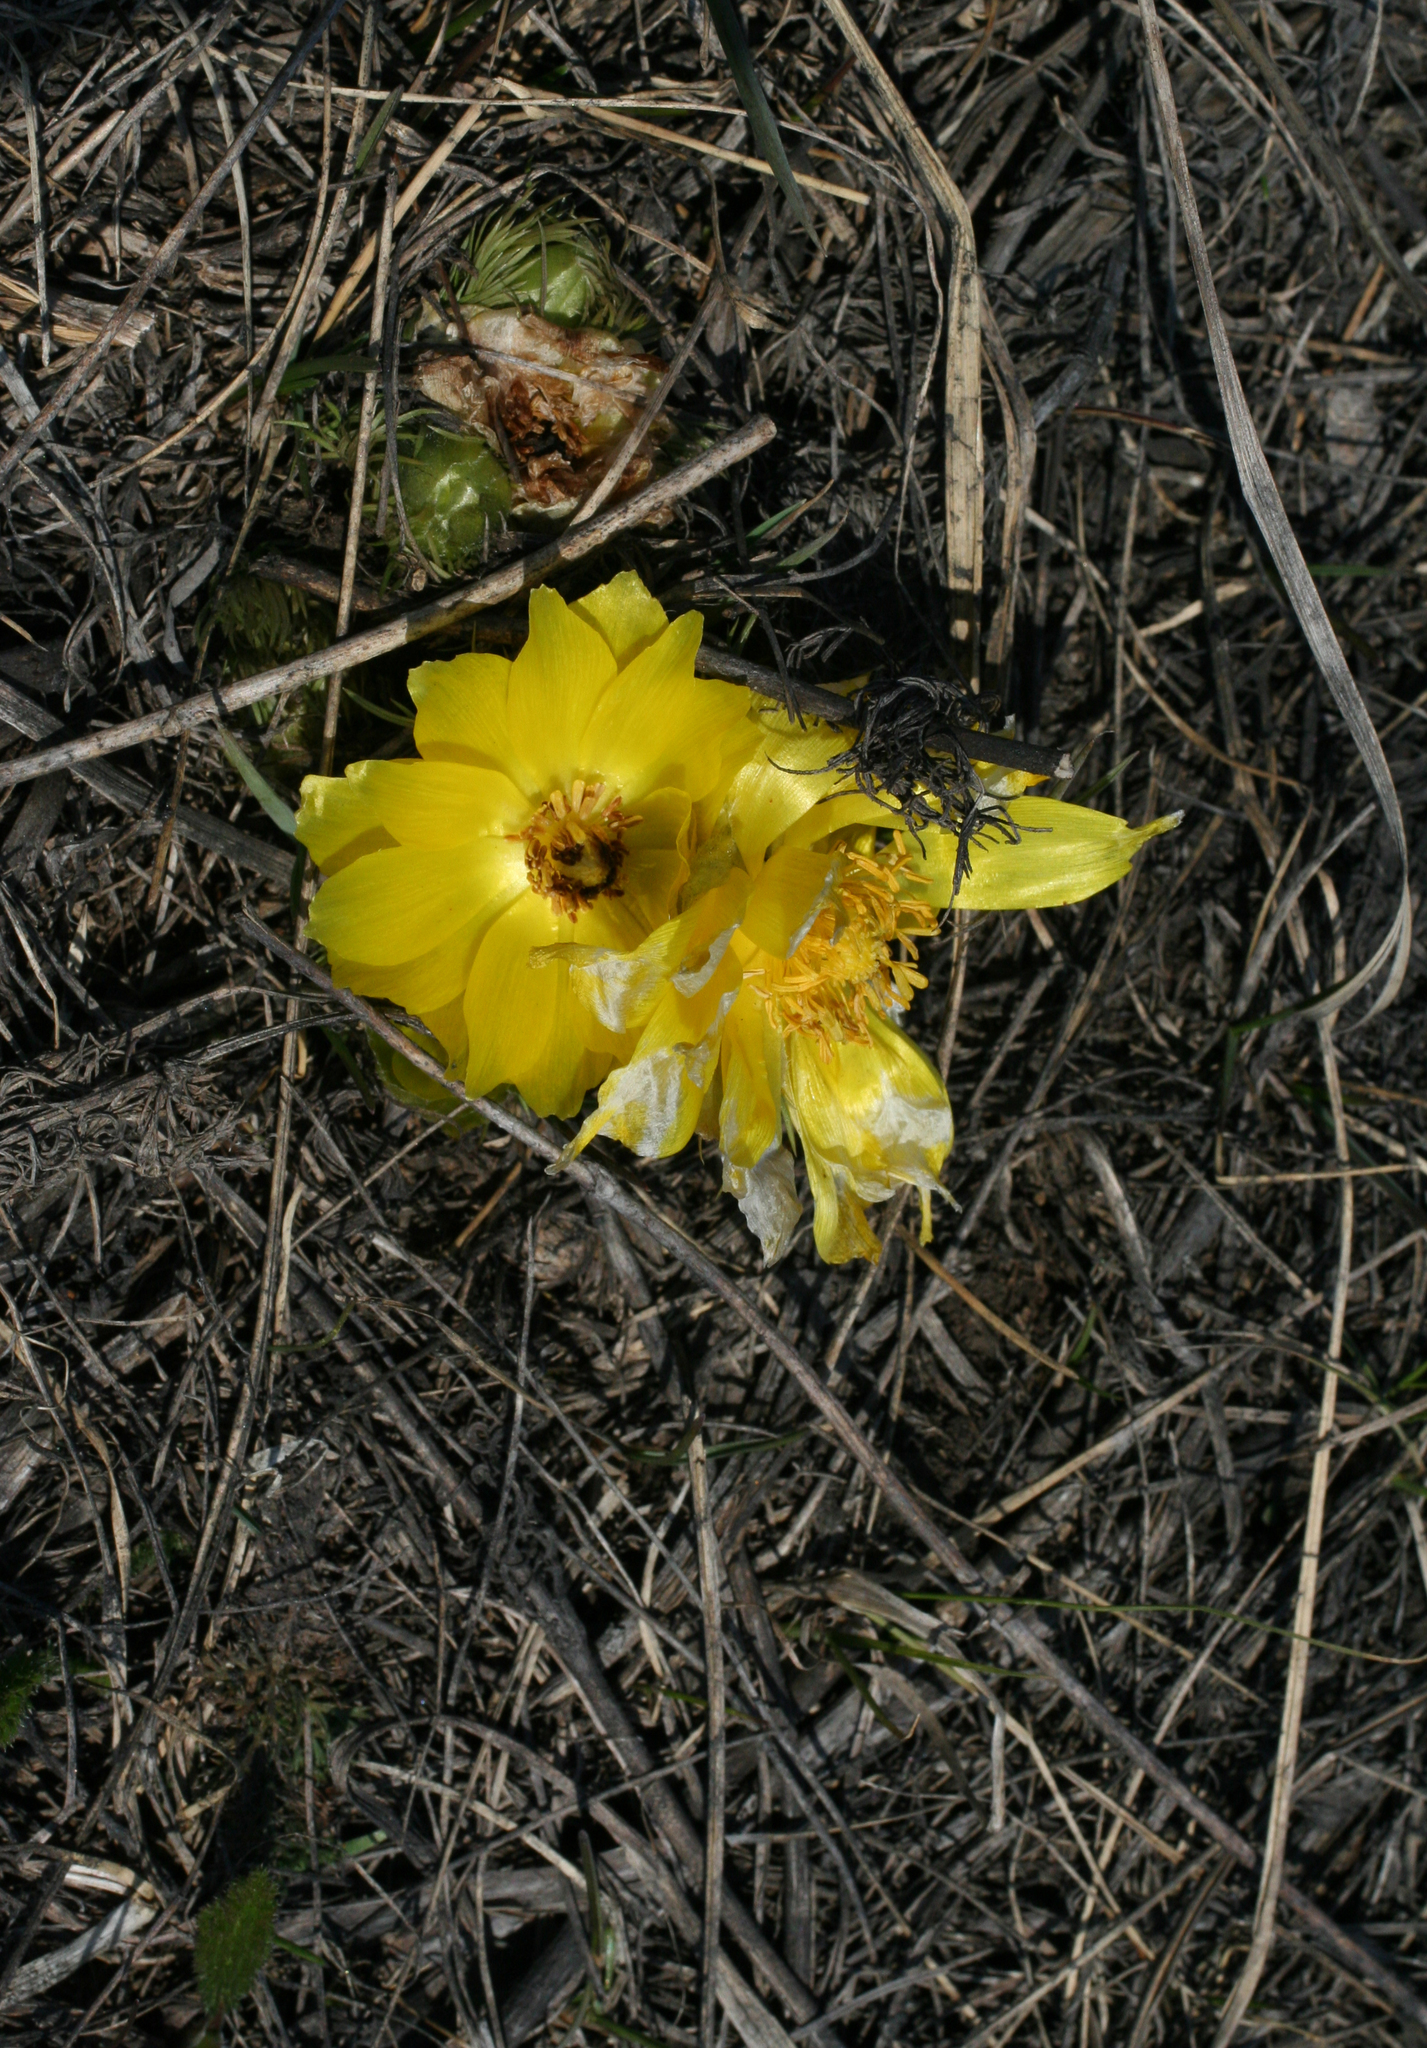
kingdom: Plantae
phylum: Tracheophyta
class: Magnoliopsida
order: Ranunculales
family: Ranunculaceae
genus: Adonis
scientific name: Adonis vernalis
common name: Yellow pheasants-eye
